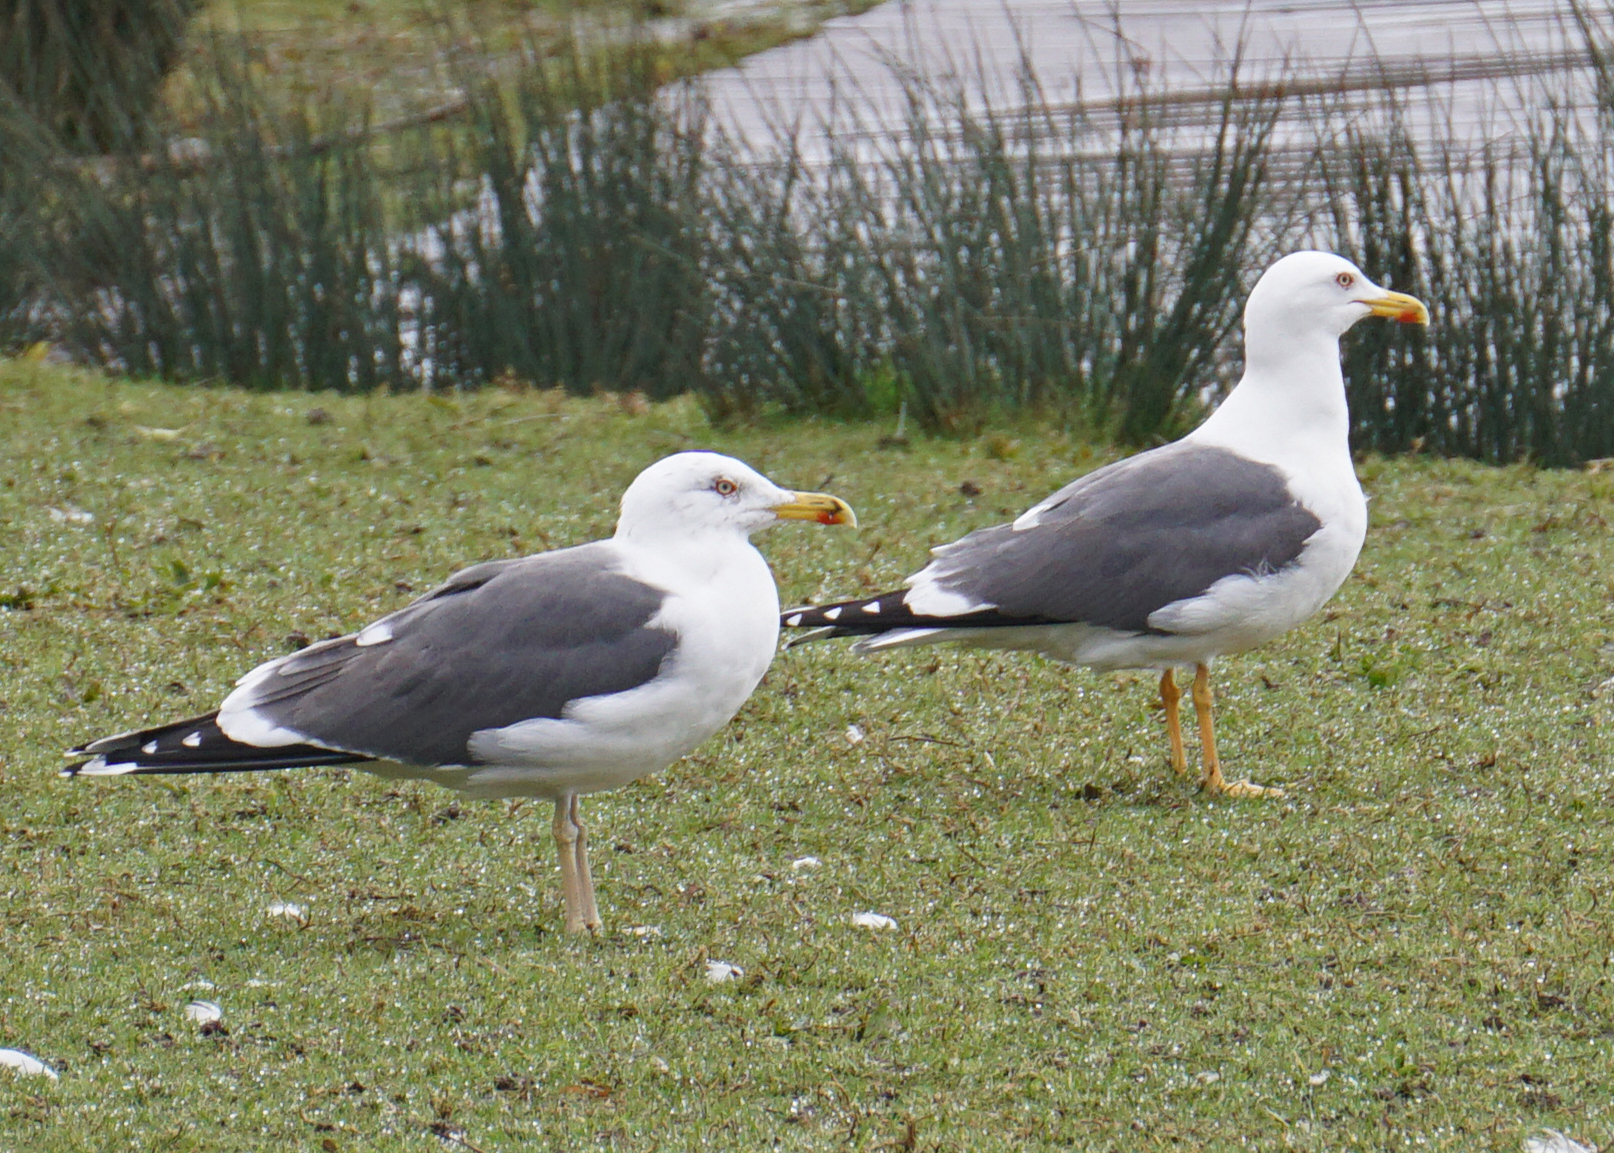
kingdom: Animalia
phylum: Chordata
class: Aves
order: Charadriiformes
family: Laridae
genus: Larus
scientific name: Larus fuscus
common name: Lesser black-backed gull
